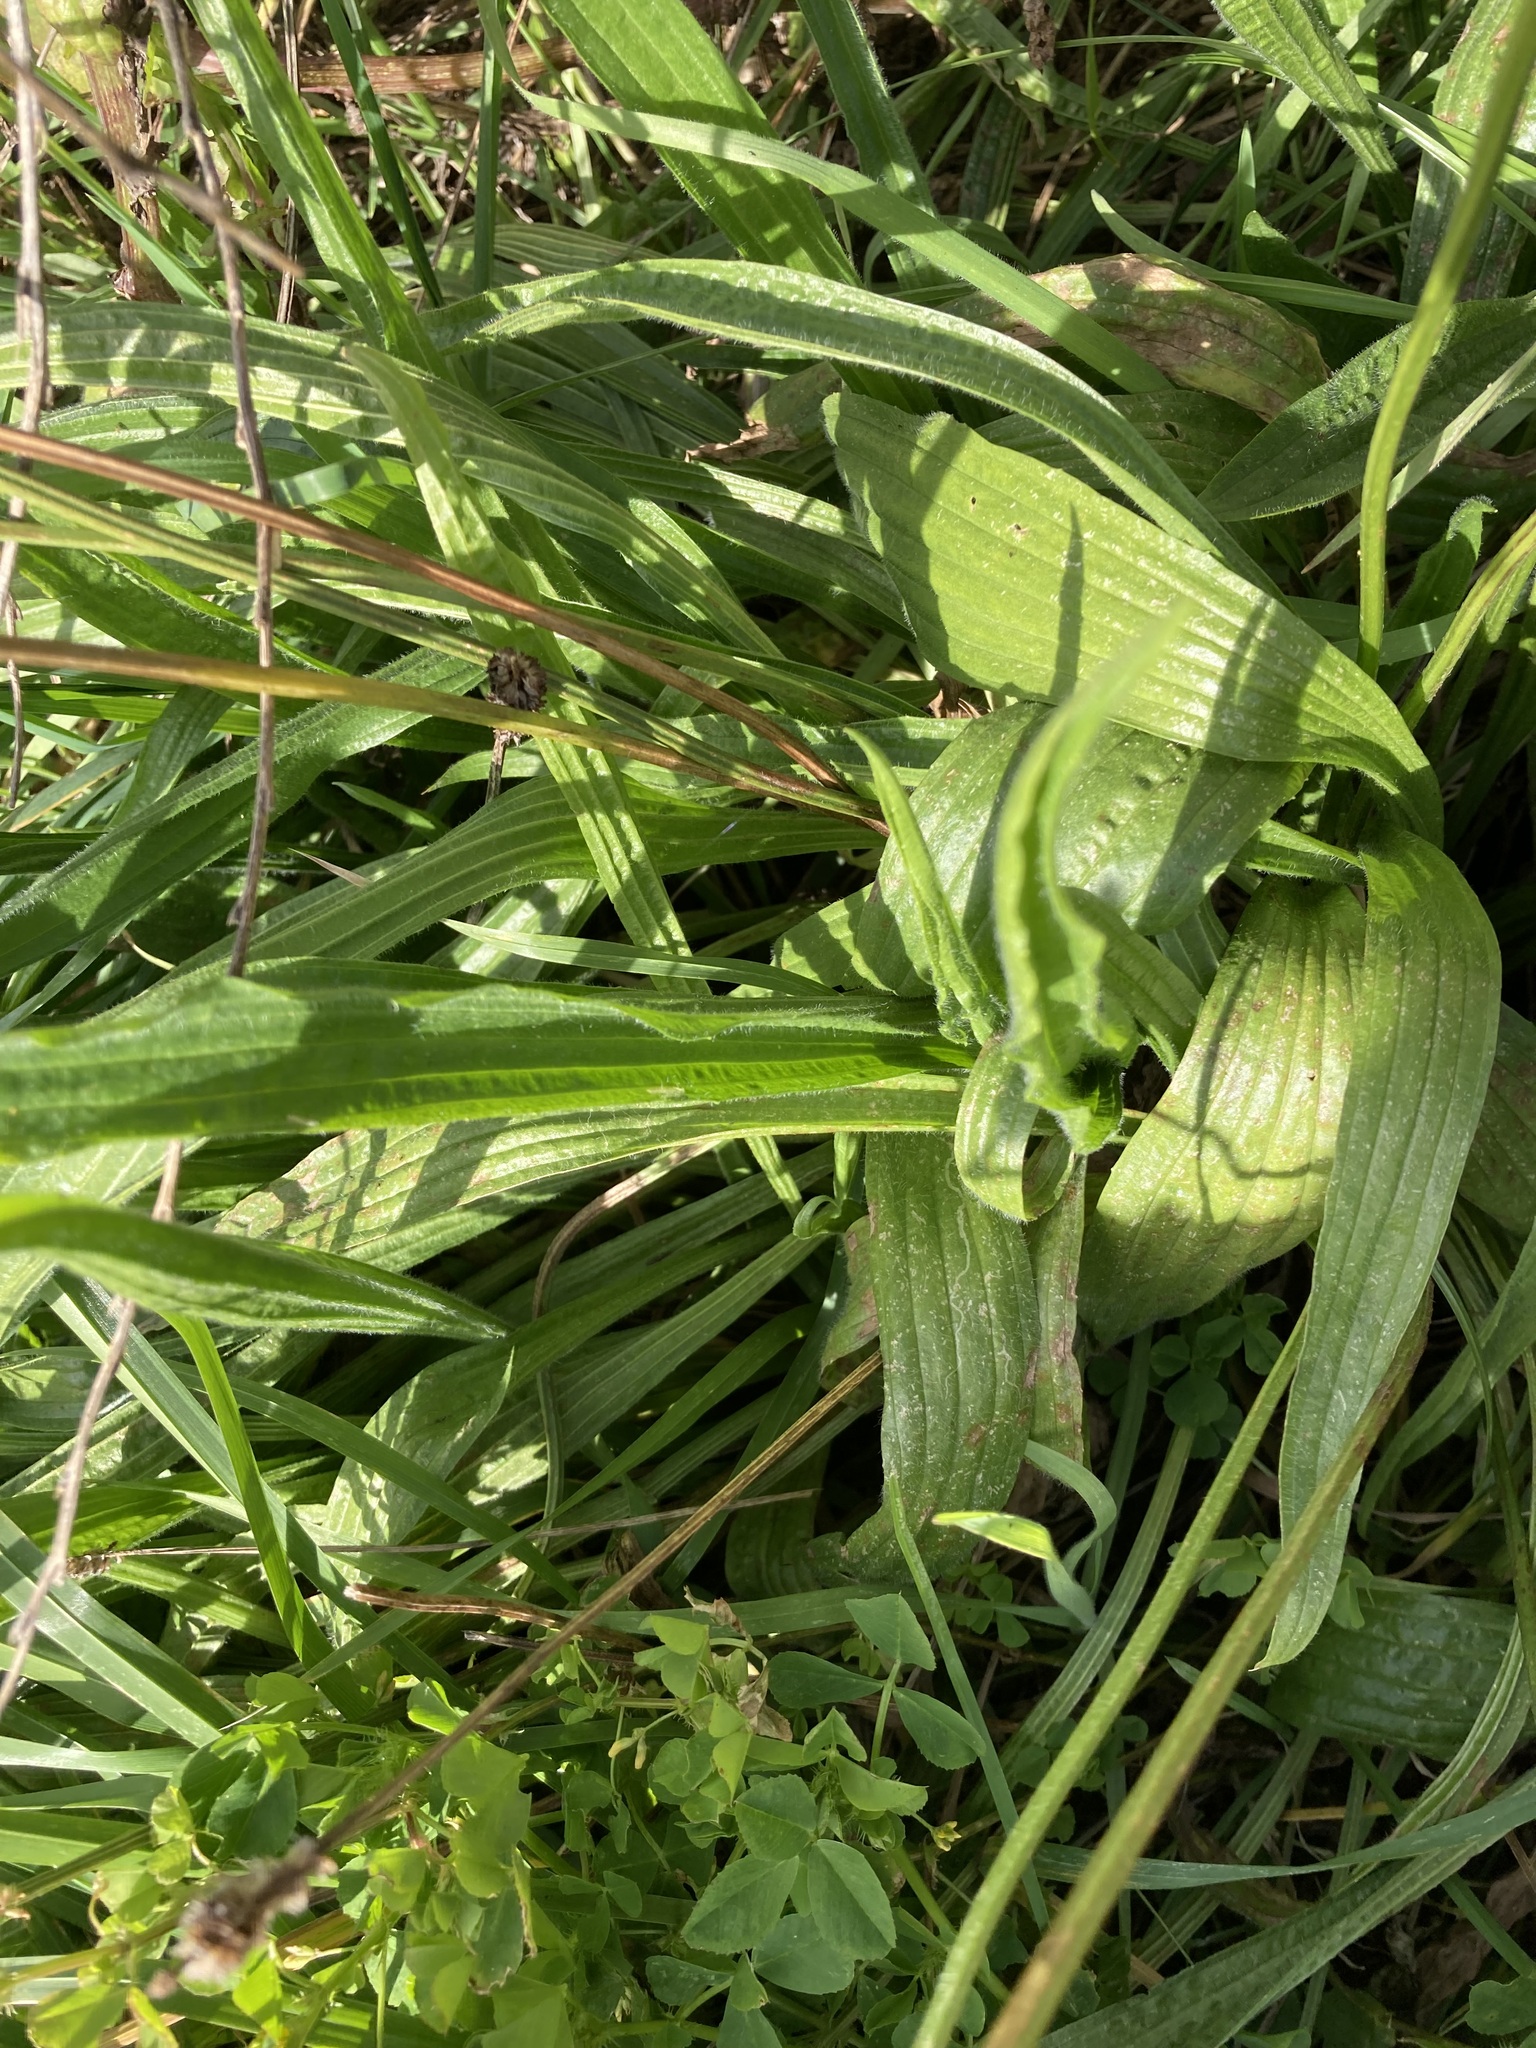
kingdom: Plantae
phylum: Tracheophyta
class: Magnoliopsida
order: Lamiales
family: Plantaginaceae
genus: Plantago
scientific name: Plantago lanceolata
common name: Ribwort plantain
